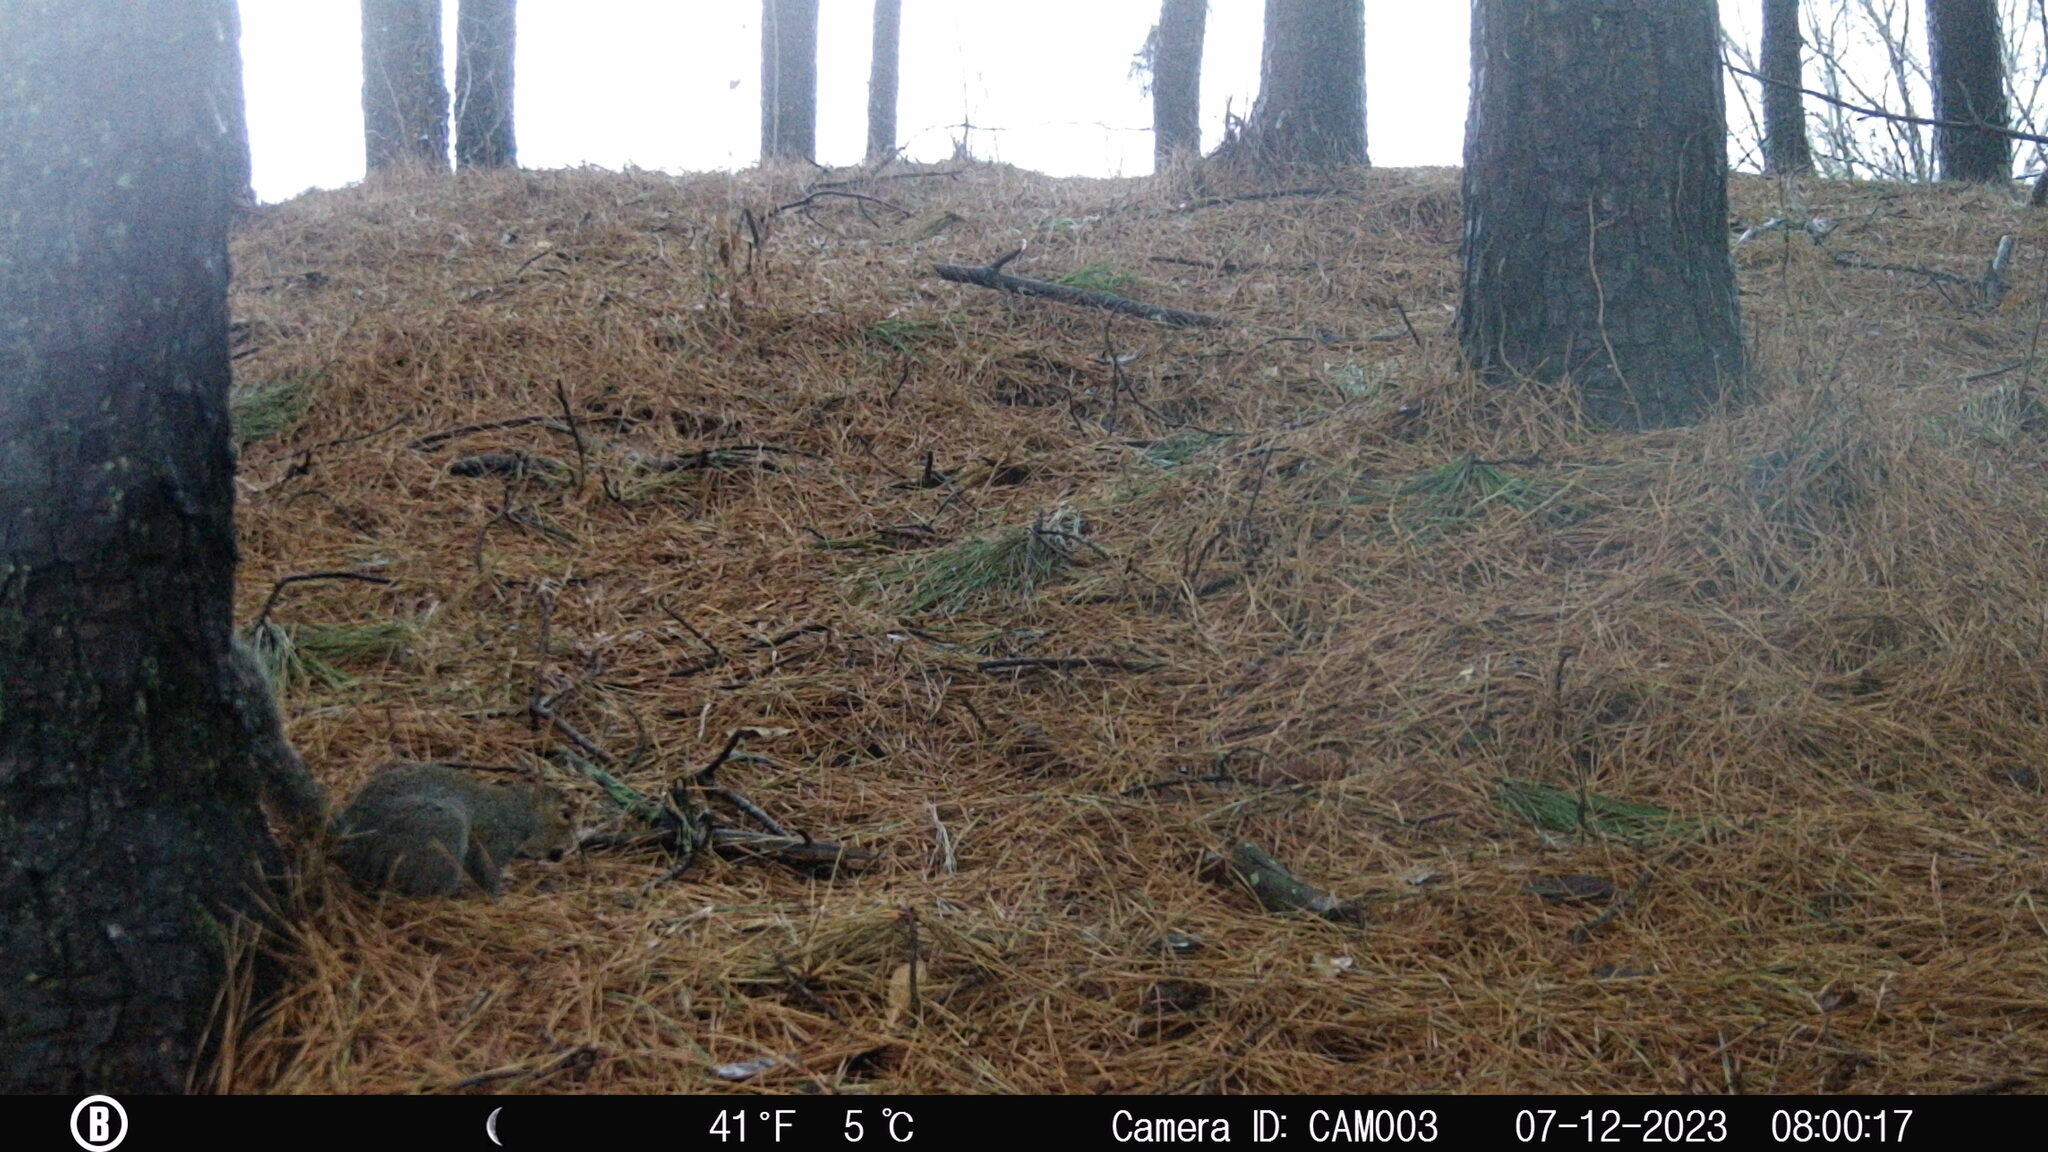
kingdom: Animalia
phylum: Chordata
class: Mammalia
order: Rodentia
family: Sciuridae
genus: Sciurus
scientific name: Sciurus carolinensis
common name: Eastern gray squirrel
